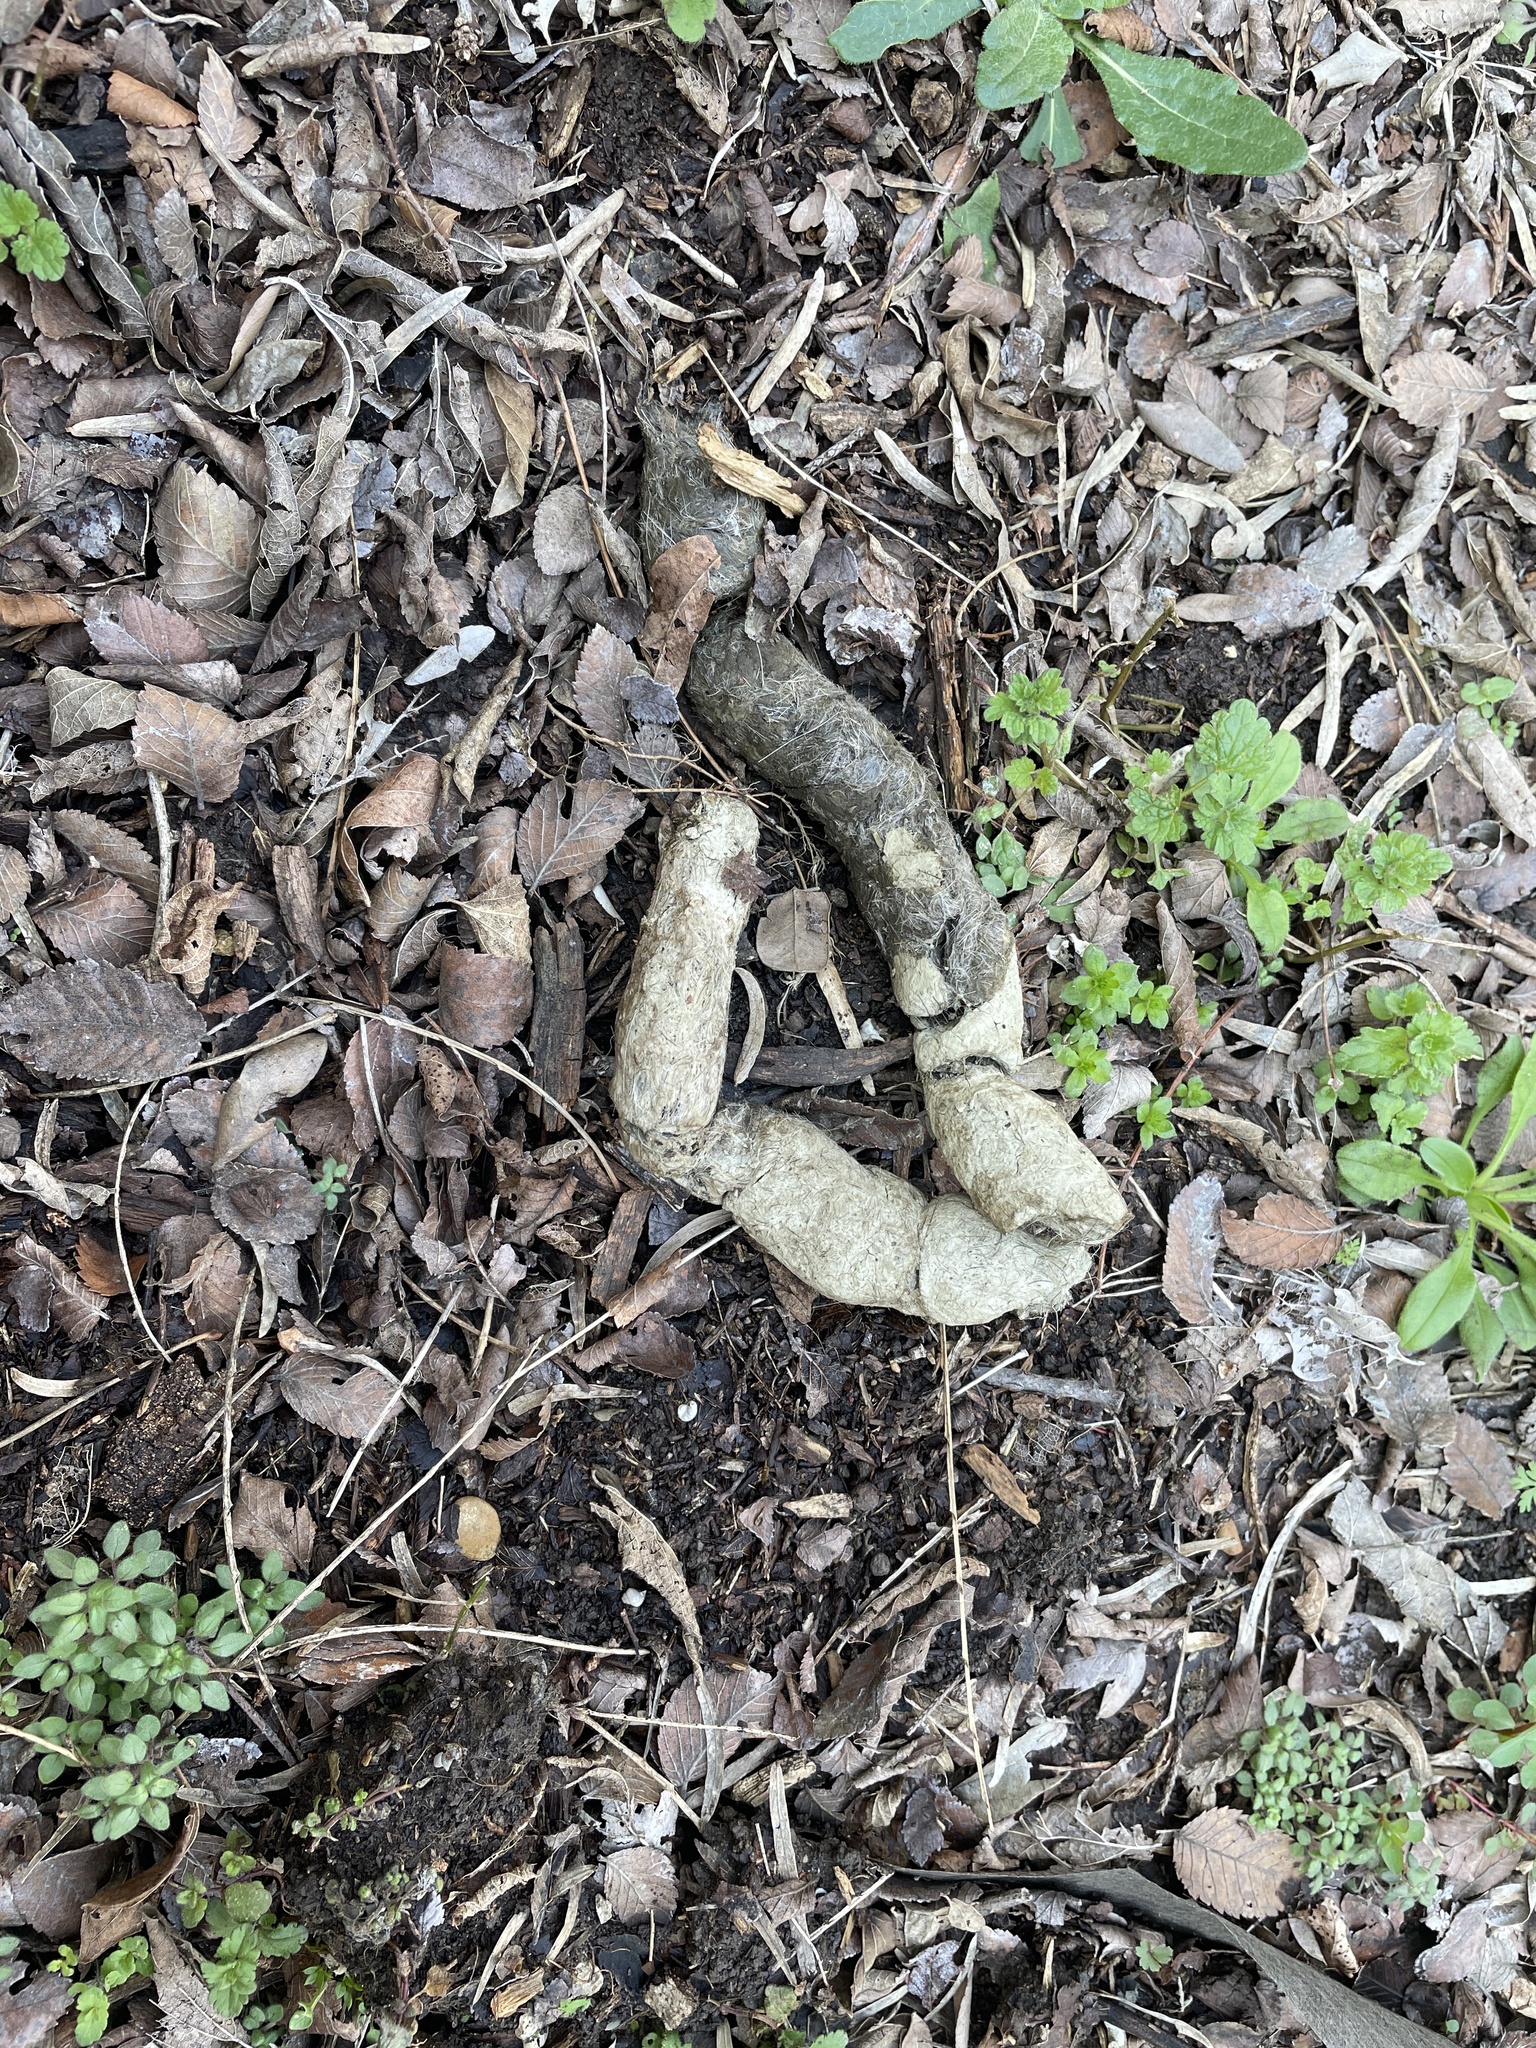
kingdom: Animalia
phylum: Chordata
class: Mammalia
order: Carnivora
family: Canidae
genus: Canis
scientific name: Canis latrans
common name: Coyote
